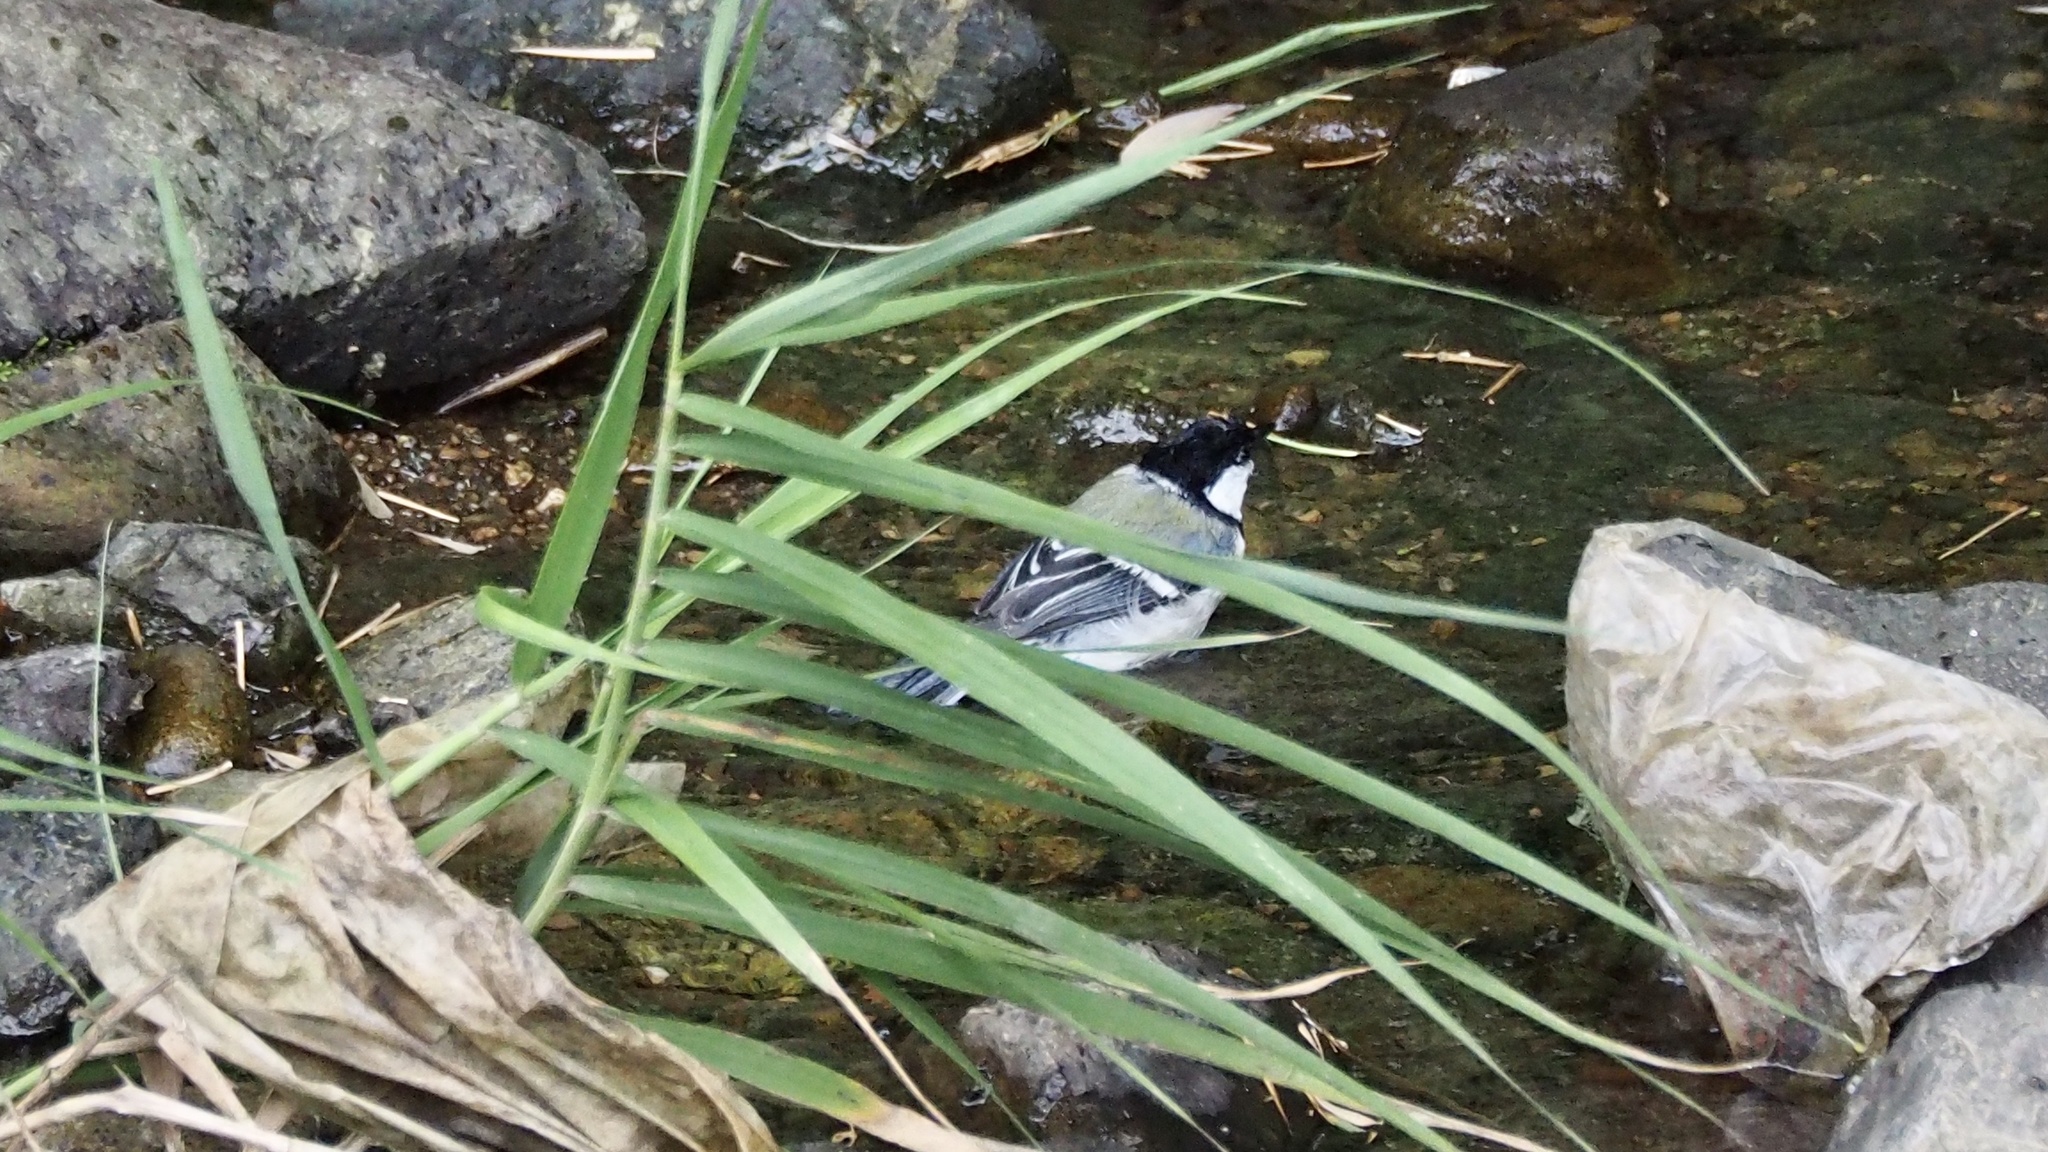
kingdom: Animalia
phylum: Chordata
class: Aves
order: Passeriformes
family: Paridae
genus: Parus
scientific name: Parus minor
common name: Japanese tit
